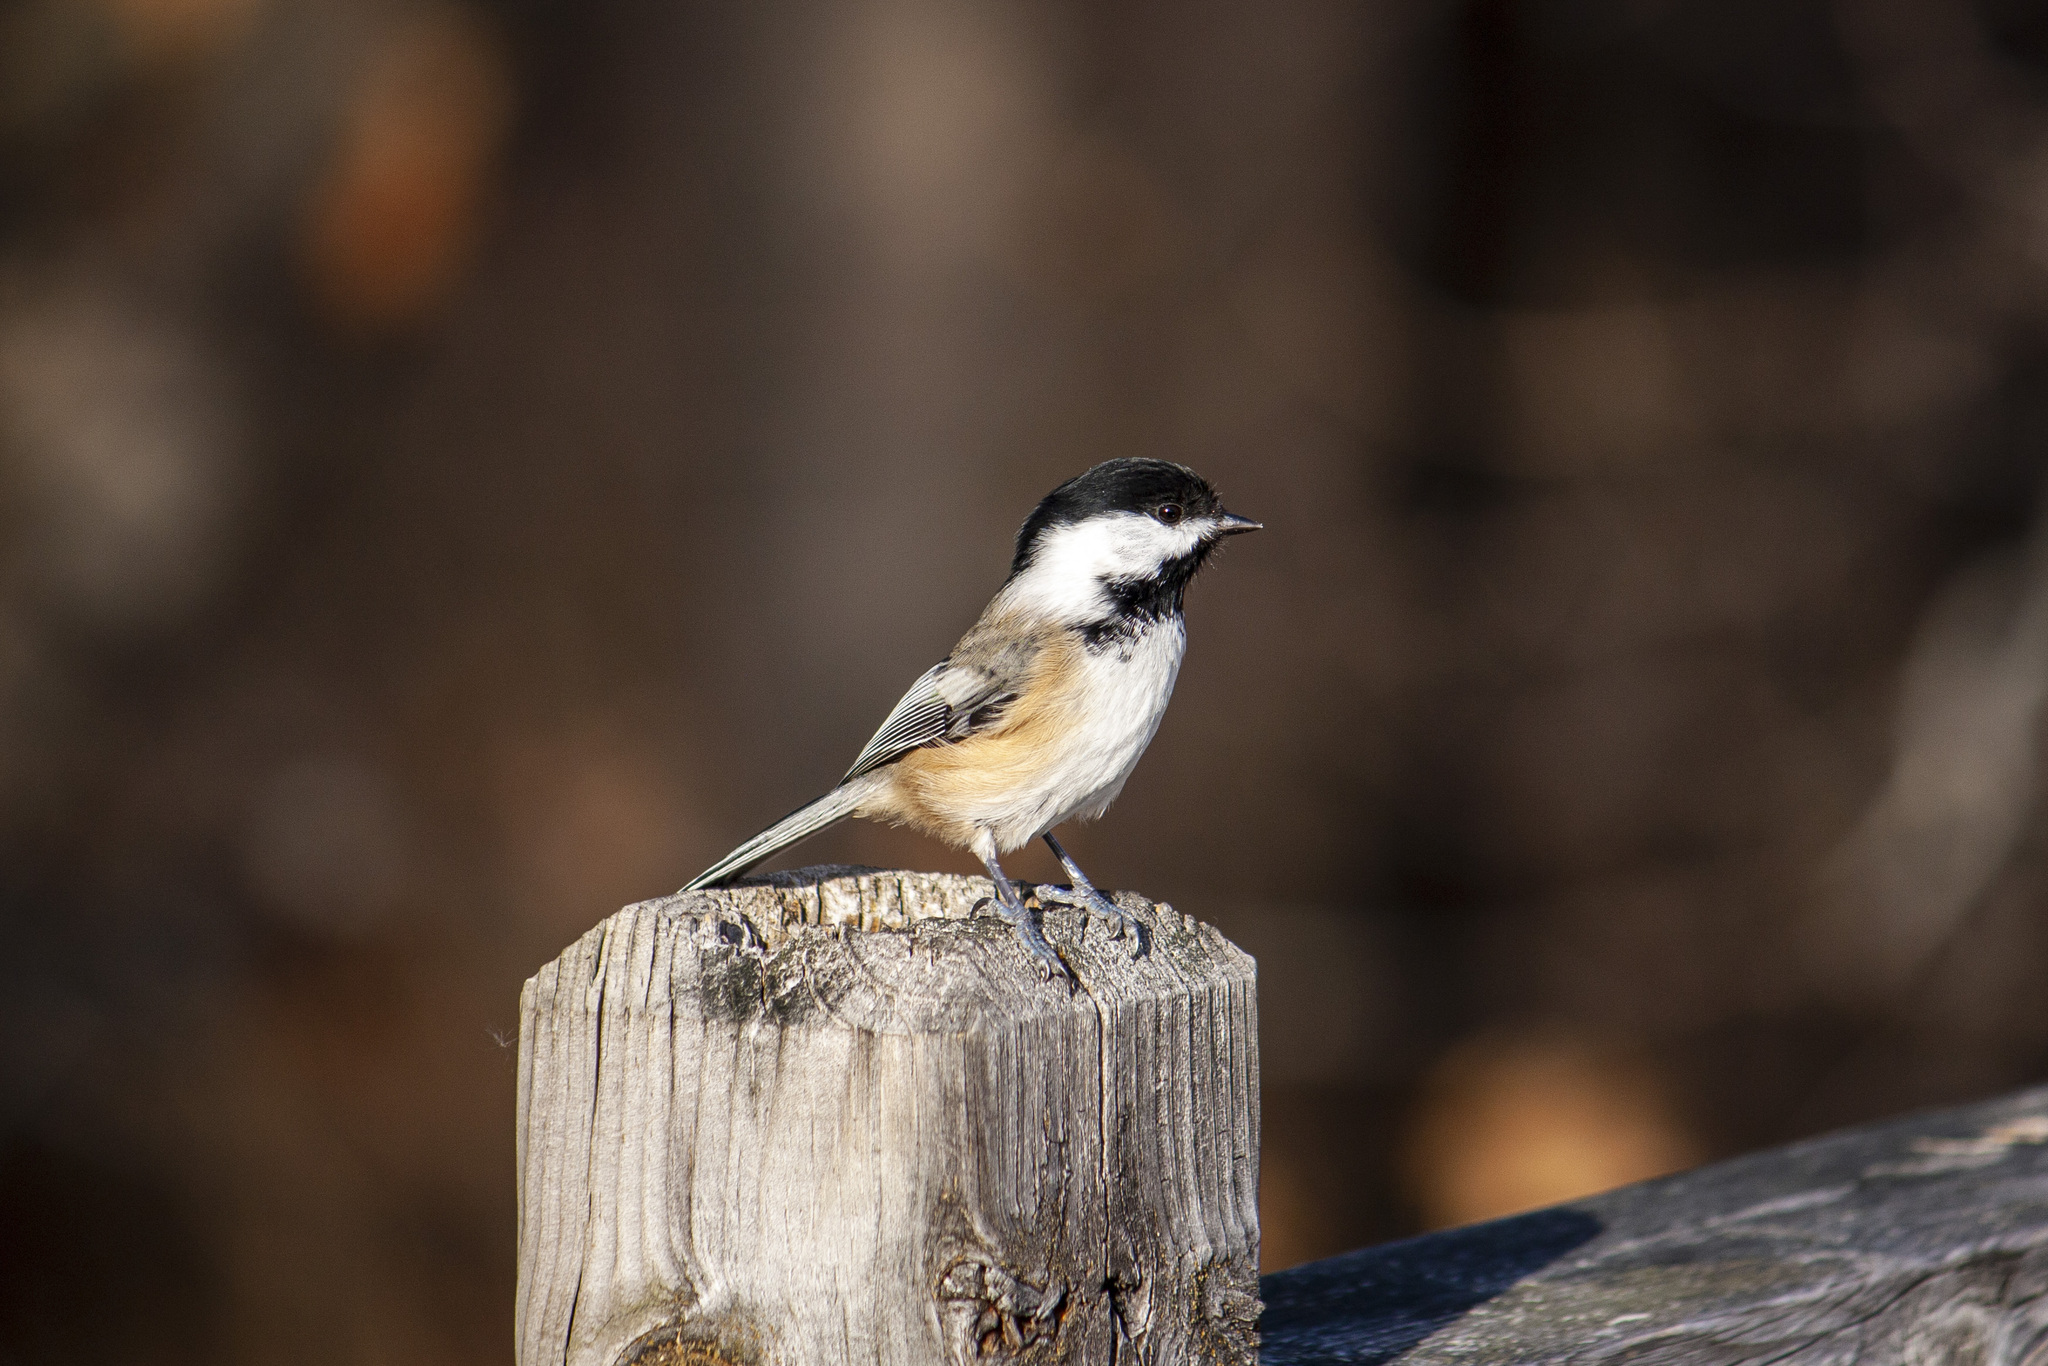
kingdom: Animalia
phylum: Chordata
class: Aves
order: Passeriformes
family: Paridae
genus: Poecile
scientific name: Poecile atricapillus
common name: Black-capped chickadee
